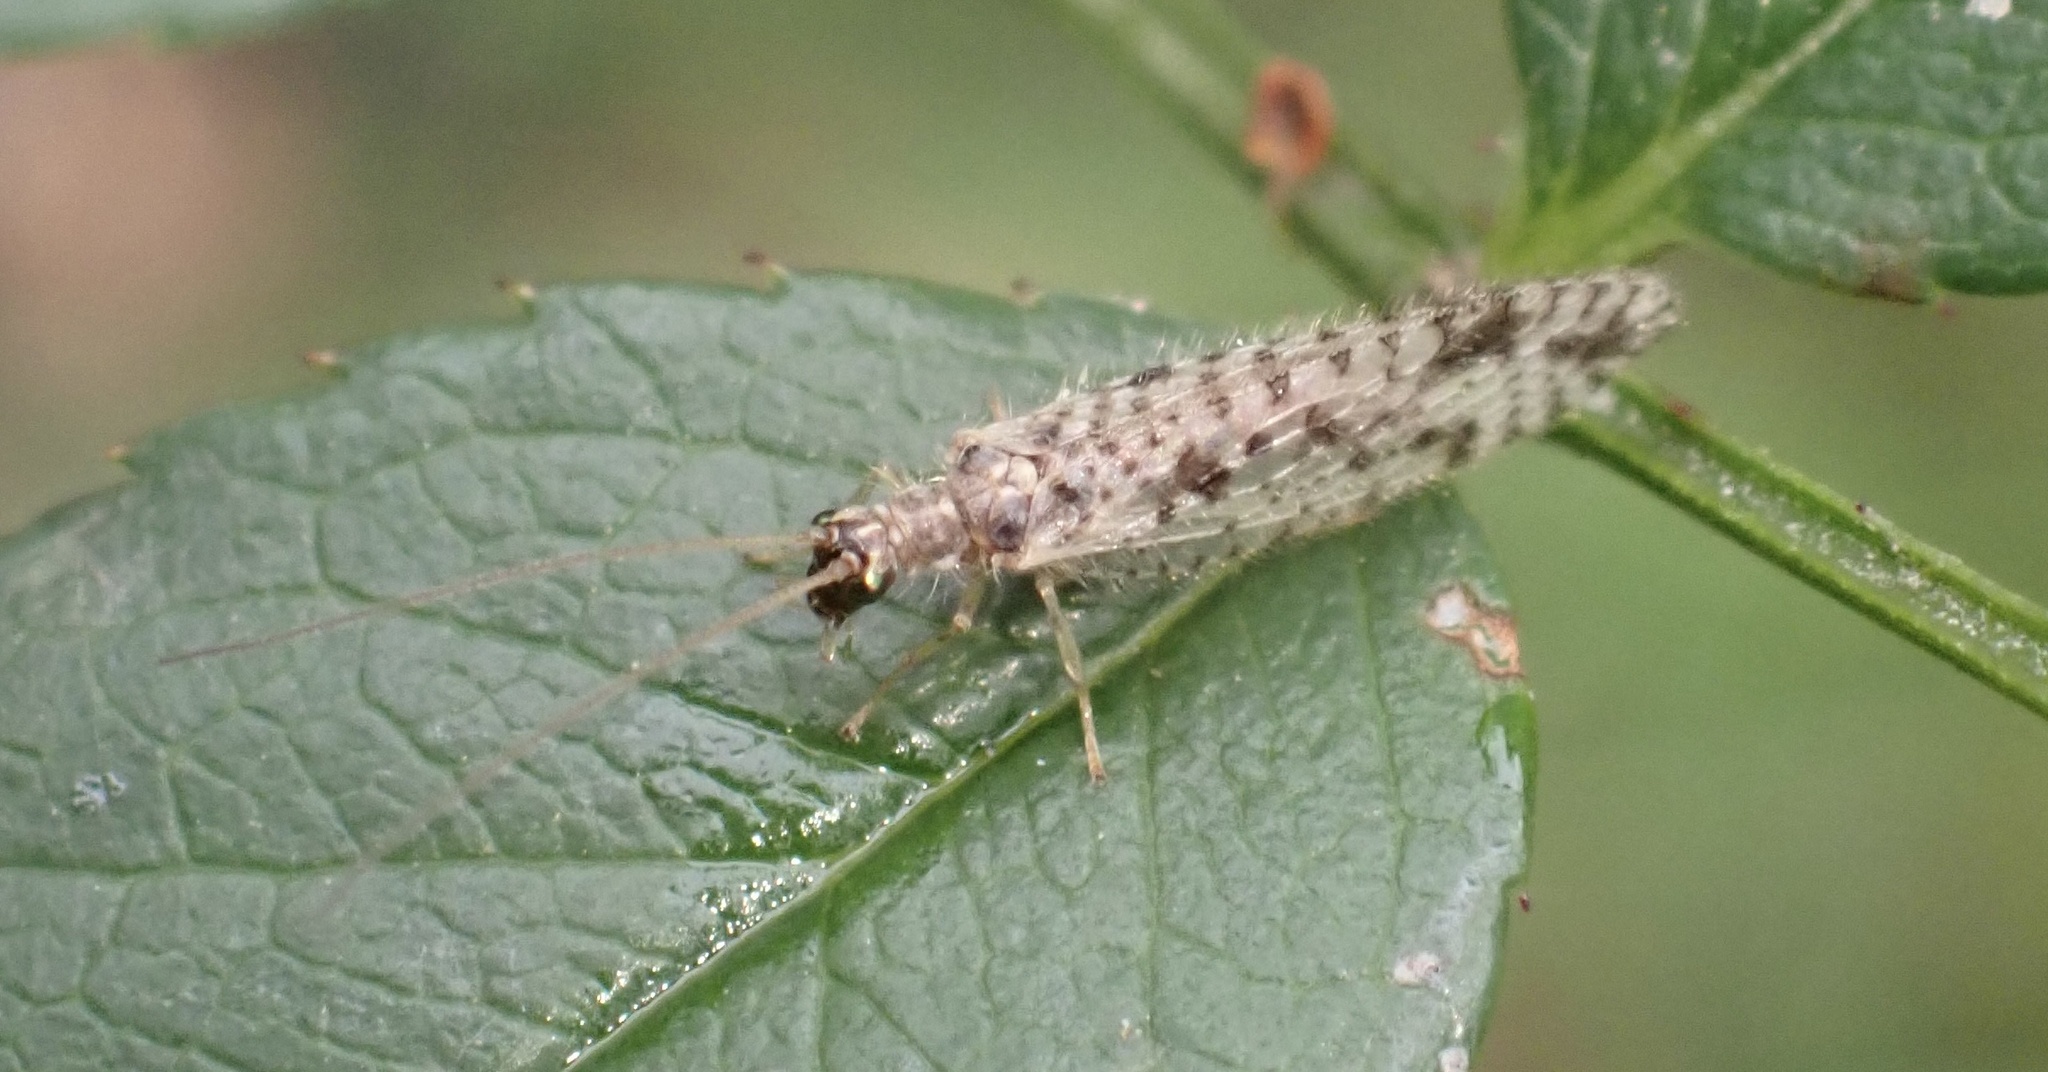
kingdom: Animalia
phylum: Arthropoda
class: Insecta
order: Neuroptera
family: Hemerobiidae
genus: Micromus
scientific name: Micromus variegatus
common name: Brown lacewing
